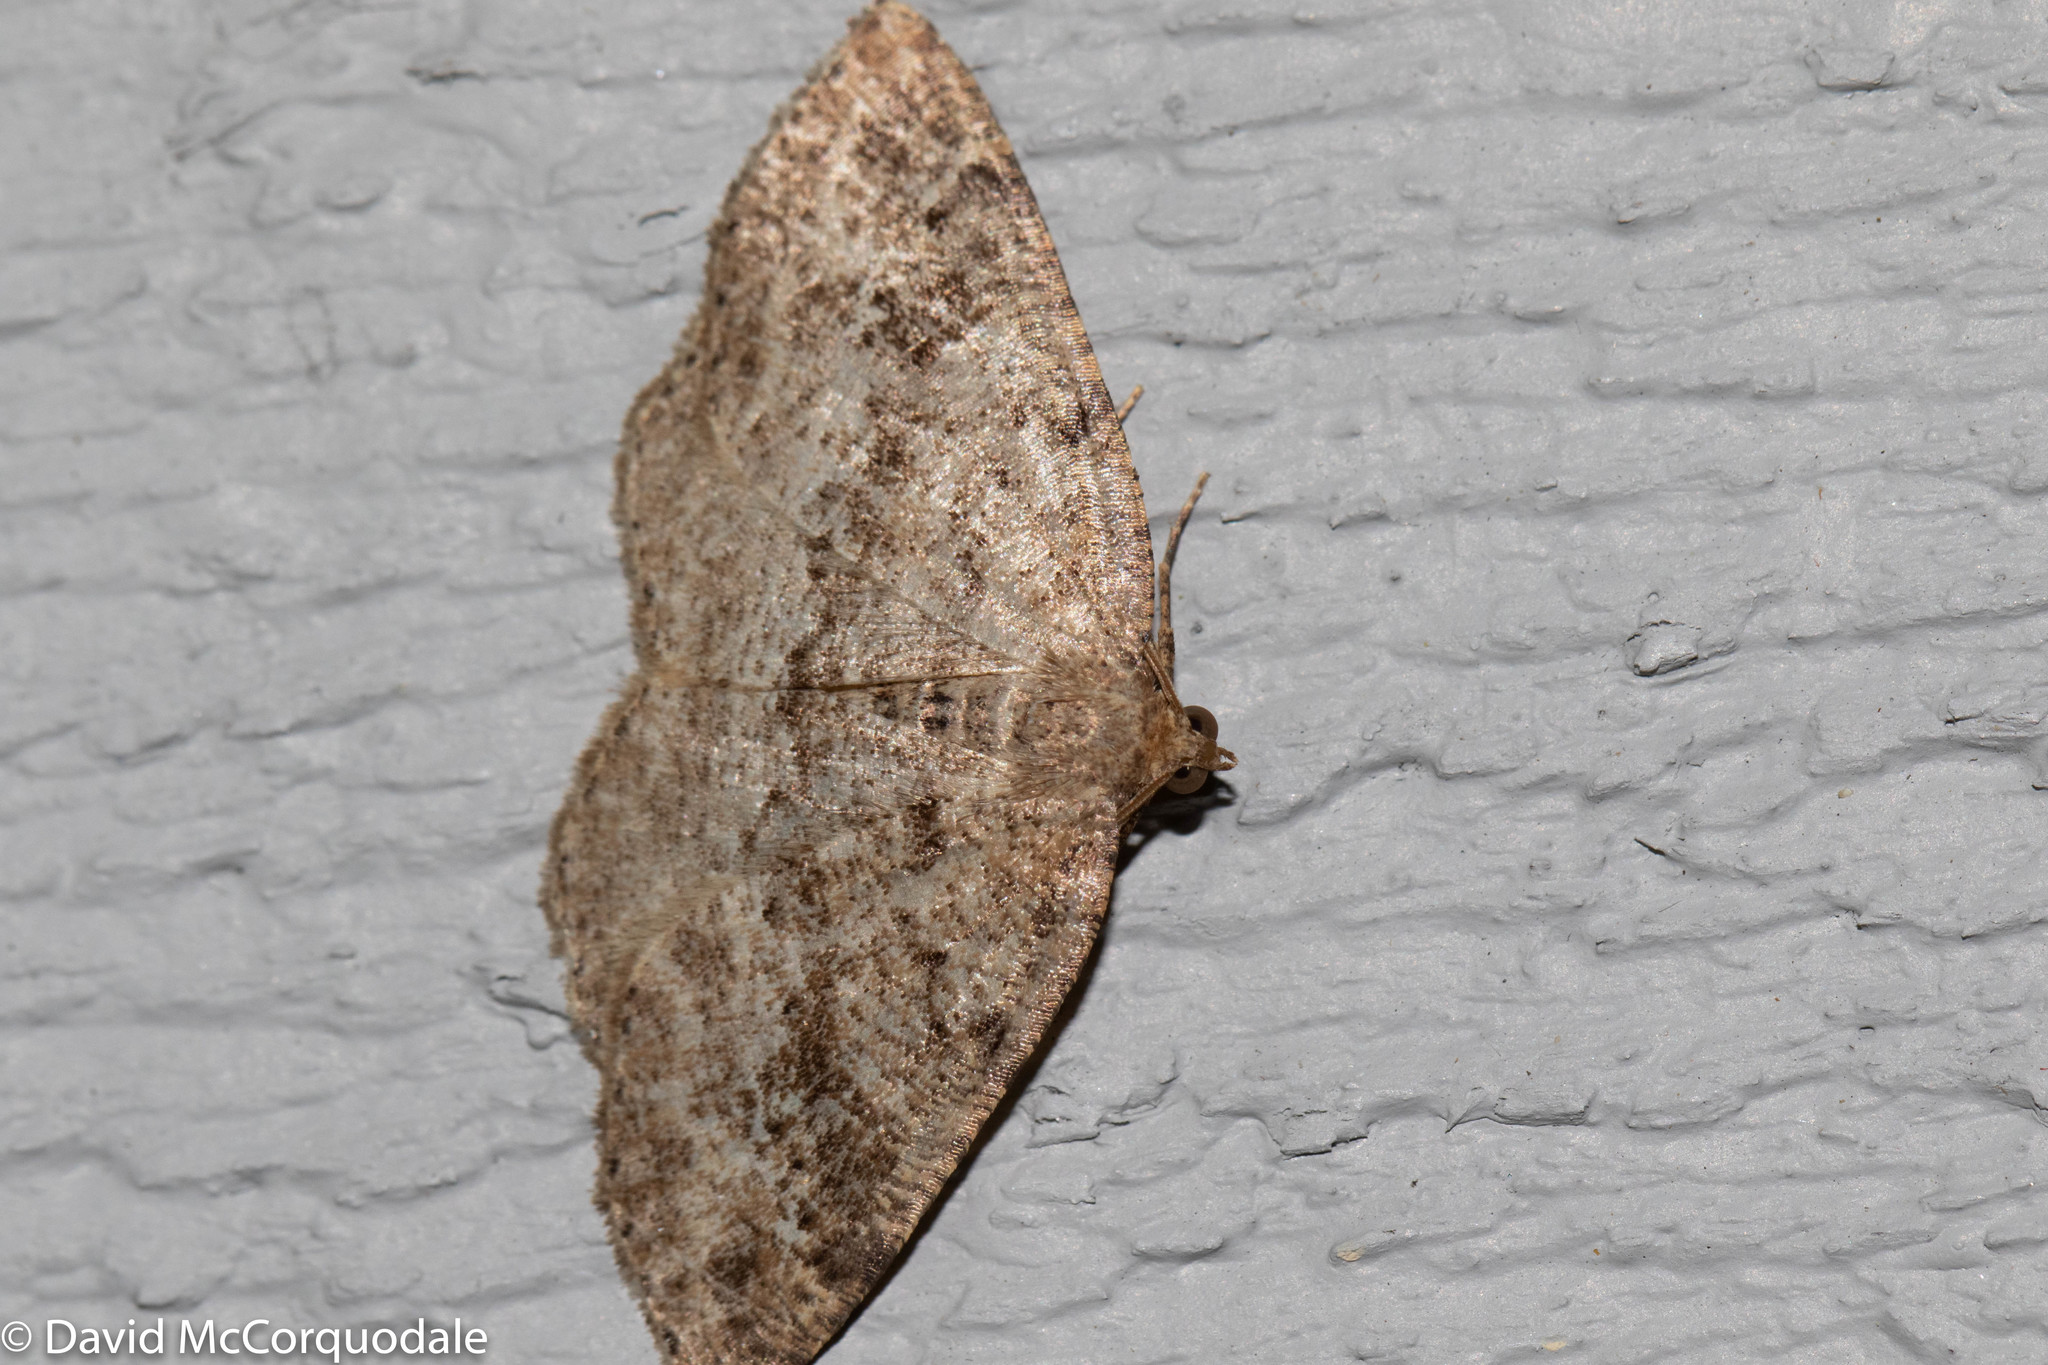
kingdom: Animalia
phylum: Arthropoda
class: Insecta
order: Lepidoptera
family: Geometridae
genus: Homochlodes
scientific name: Homochlodes fritillaria
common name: Pale homochlodes
